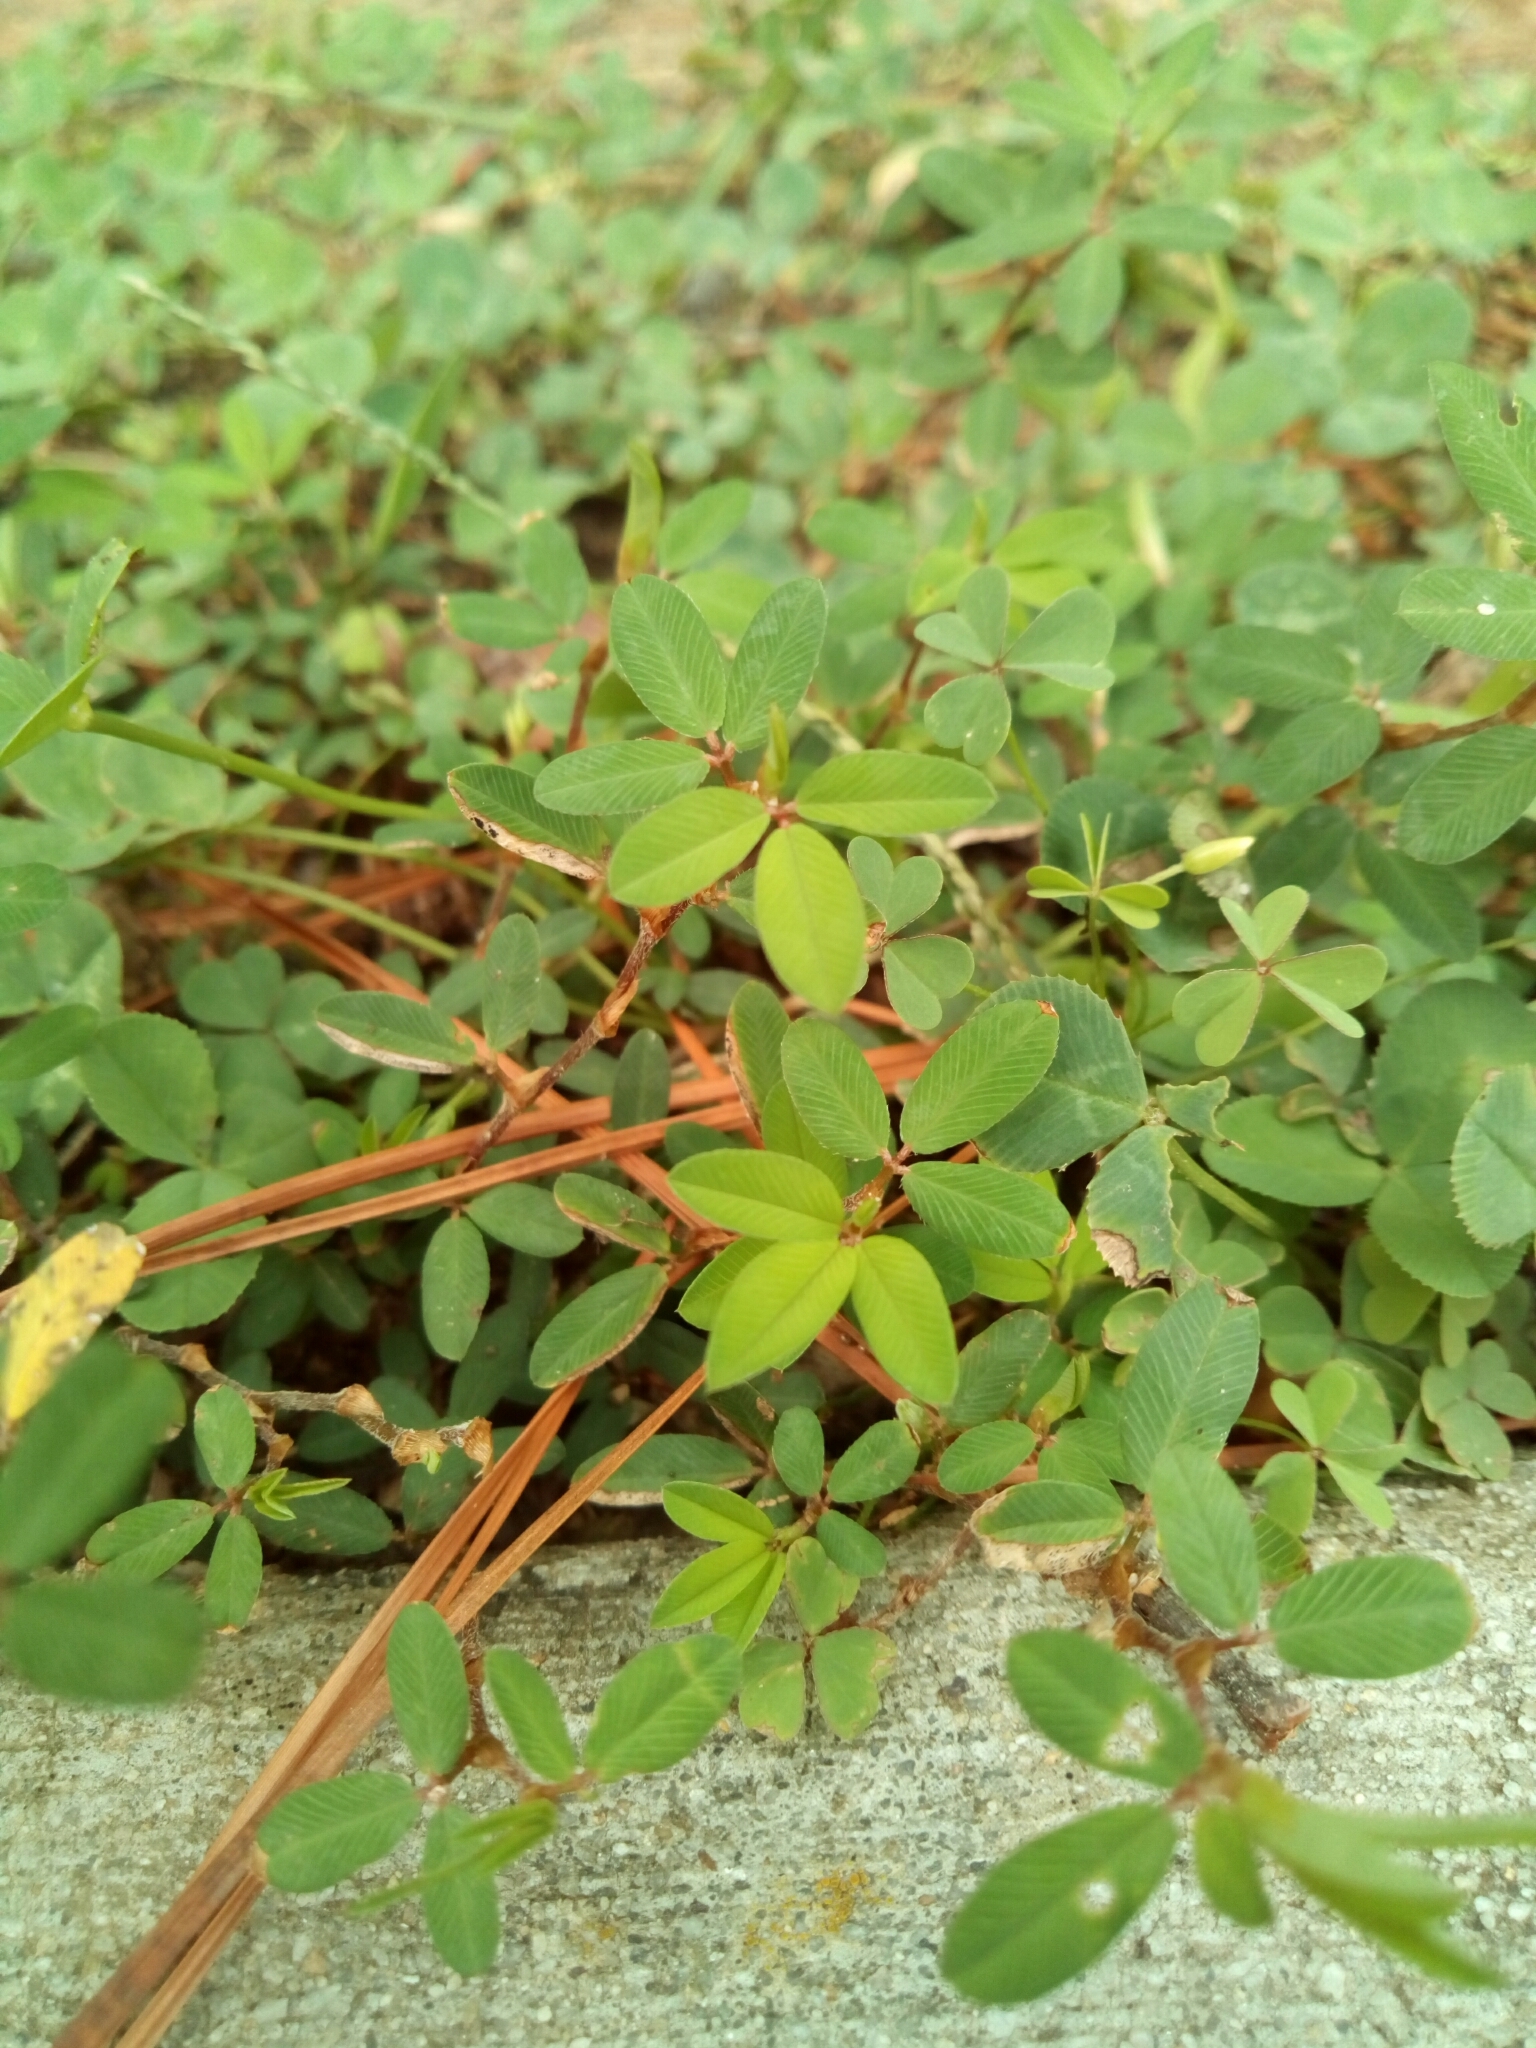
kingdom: Plantae
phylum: Tracheophyta
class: Magnoliopsida
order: Fabales
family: Fabaceae
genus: Kummerowia
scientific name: Kummerowia striata
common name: Japanese clover
